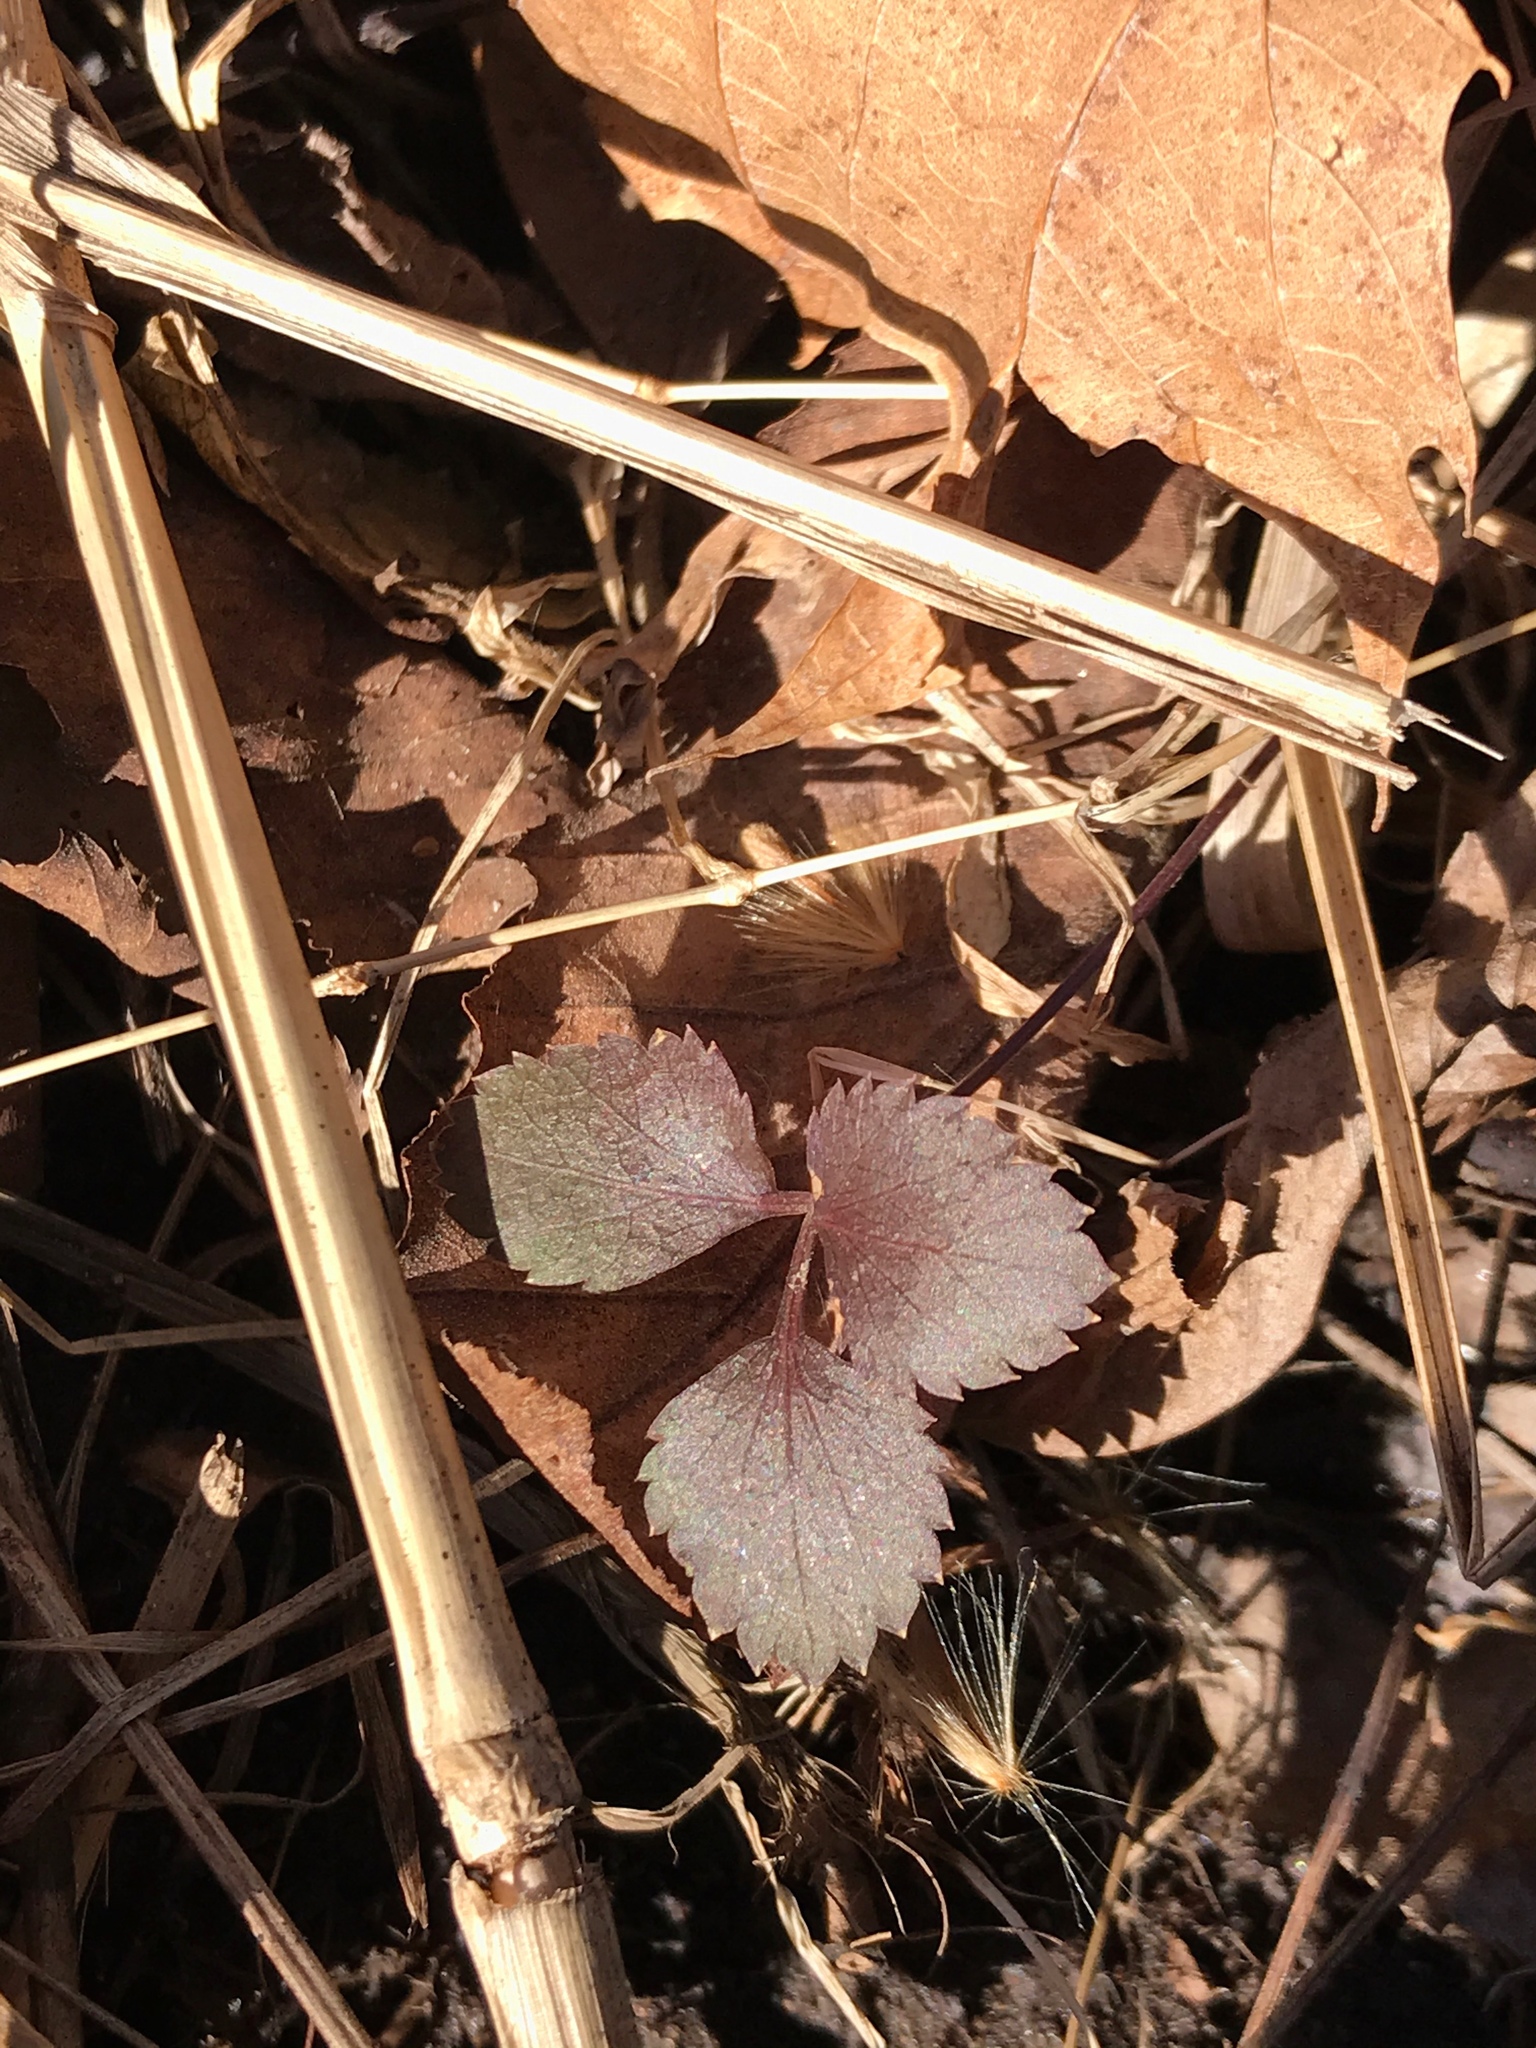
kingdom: Plantae
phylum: Tracheophyta
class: Magnoliopsida
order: Rosales
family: Rosaceae
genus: Potentilla
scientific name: Potentilla indica
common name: Yellow-flowered strawberry
